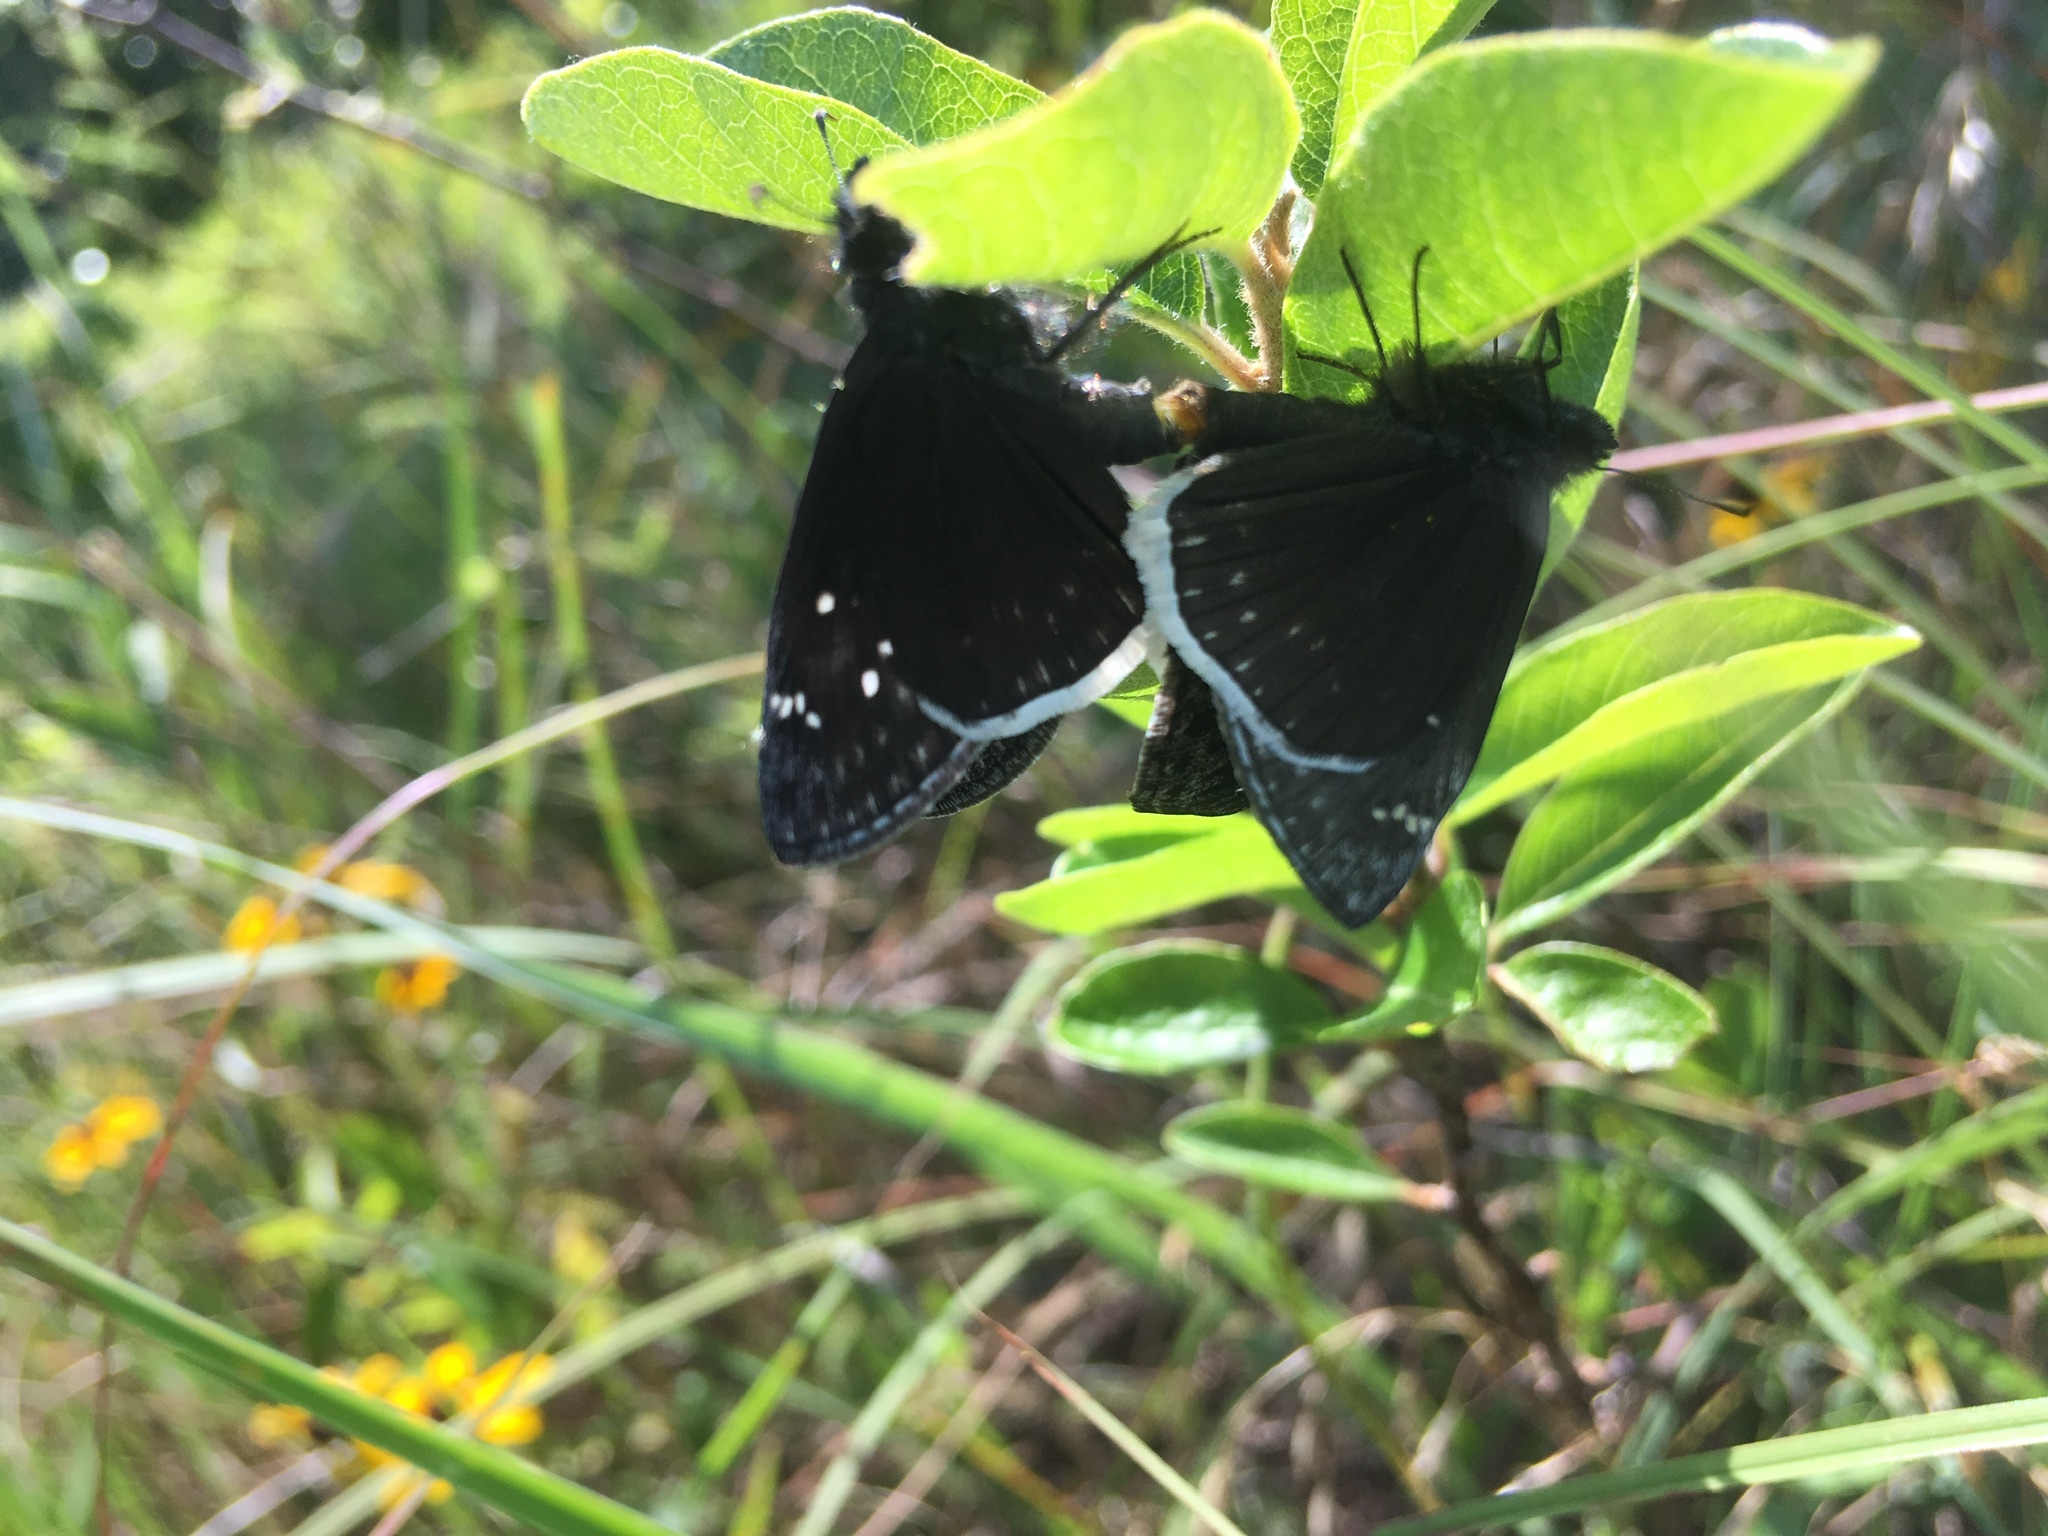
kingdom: Animalia
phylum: Arthropoda
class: Insecta
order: Lepidoptera
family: Hesperiidae
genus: Erynnis
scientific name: Erynnis funeralis
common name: Funereal duskywing
